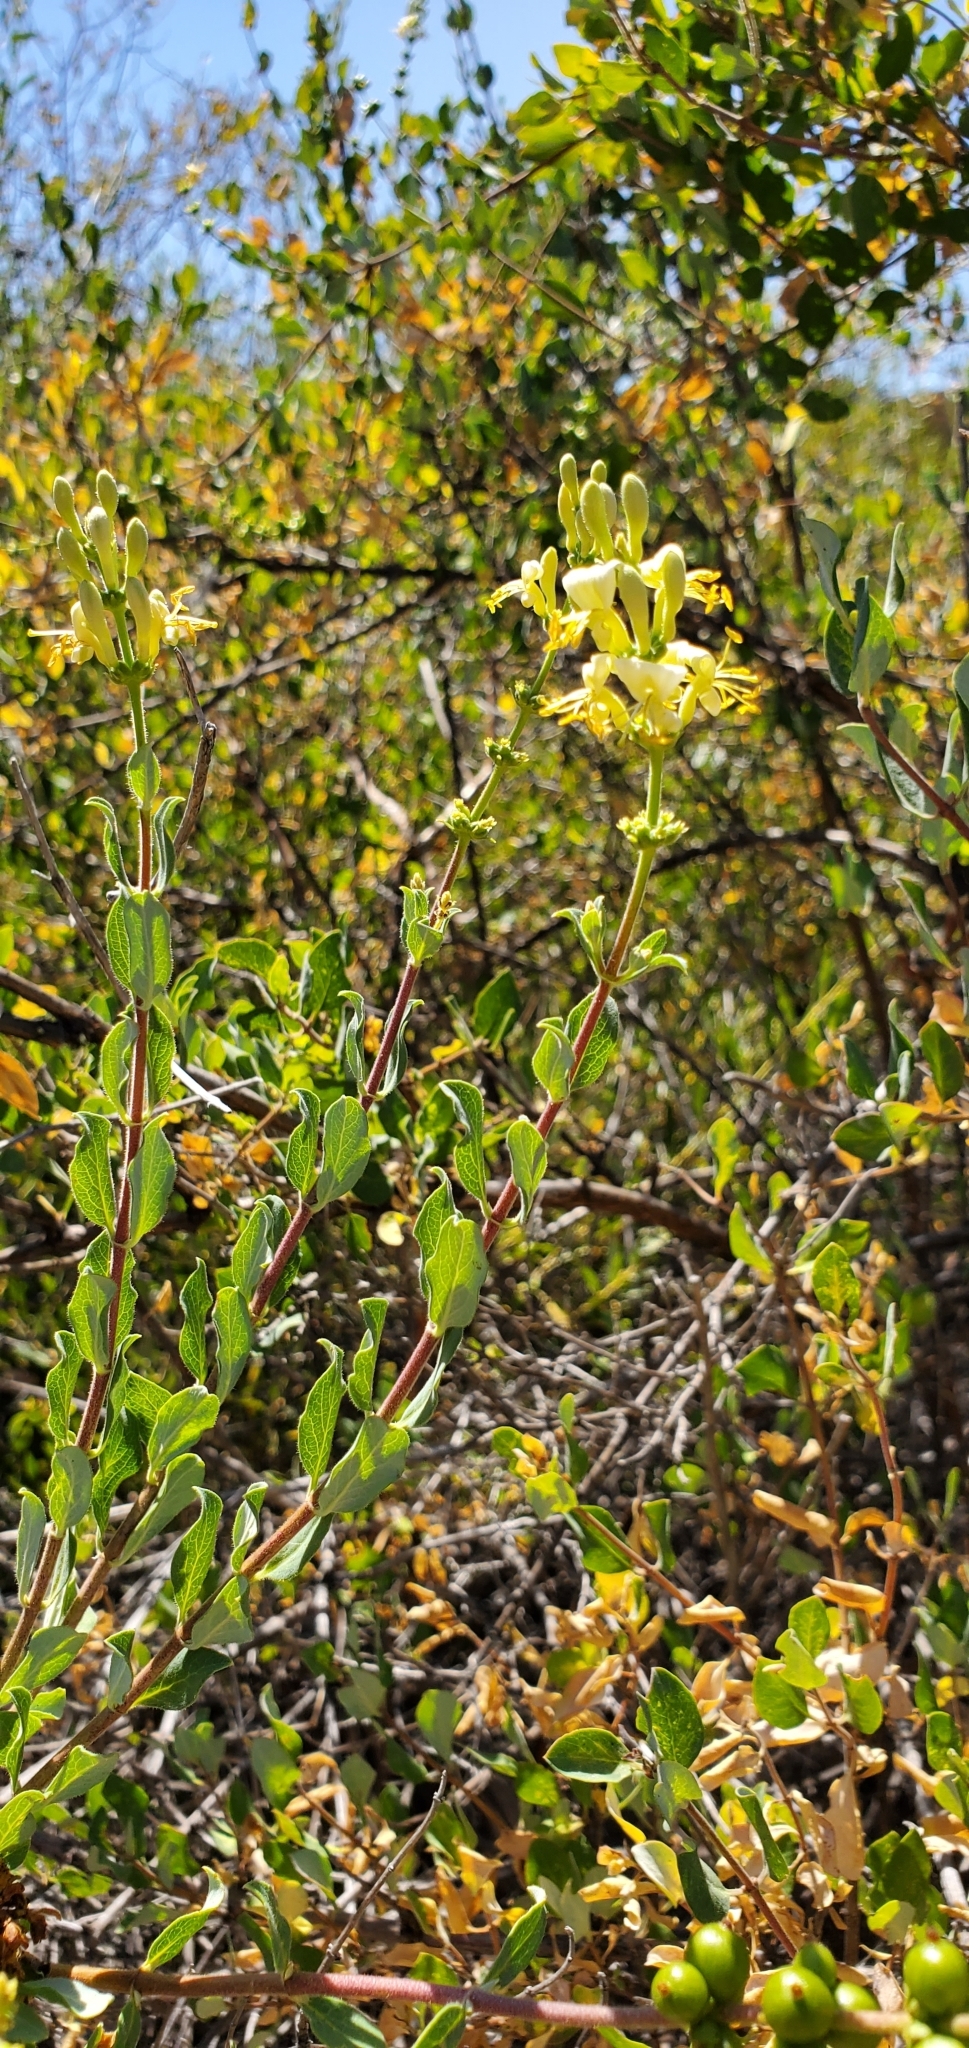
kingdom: Plantae
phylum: Tracheophyta
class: Magnoliopsida
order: Dipsacales
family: Caprifoliaceae
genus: Lonicera
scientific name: Lonicera subspicata
